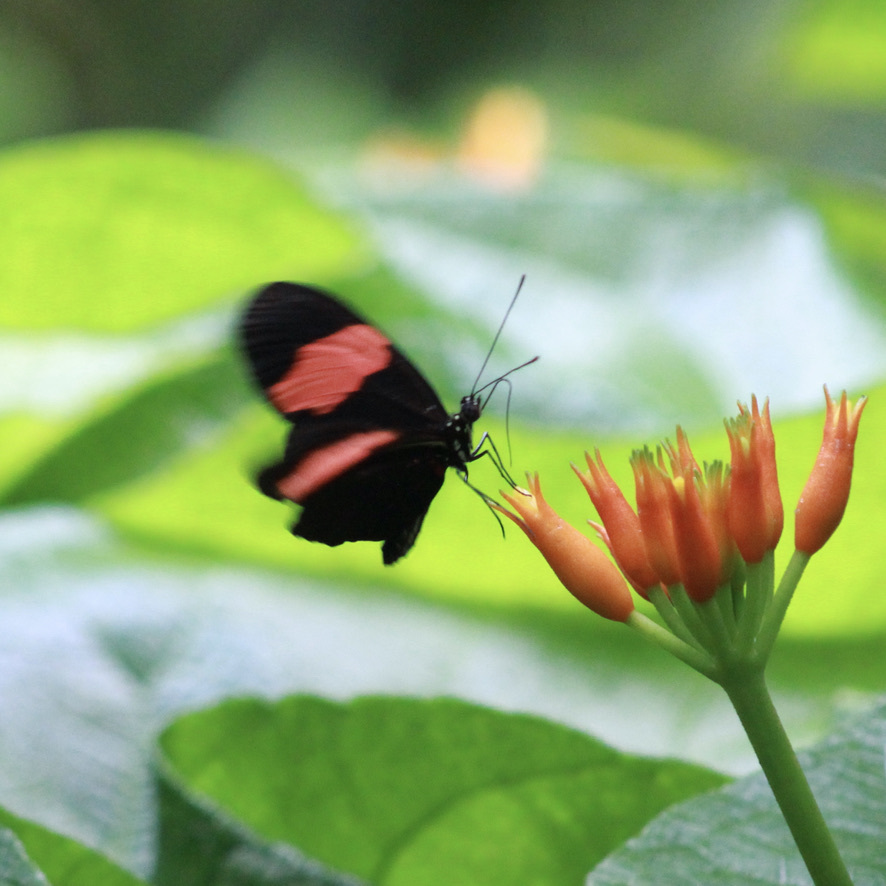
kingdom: Animalia
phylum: Arthropoda
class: Insecta
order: Lepidoptera
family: Nymphalidae
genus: Heliconius
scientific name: Heliconius erato
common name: Common patch longwing
